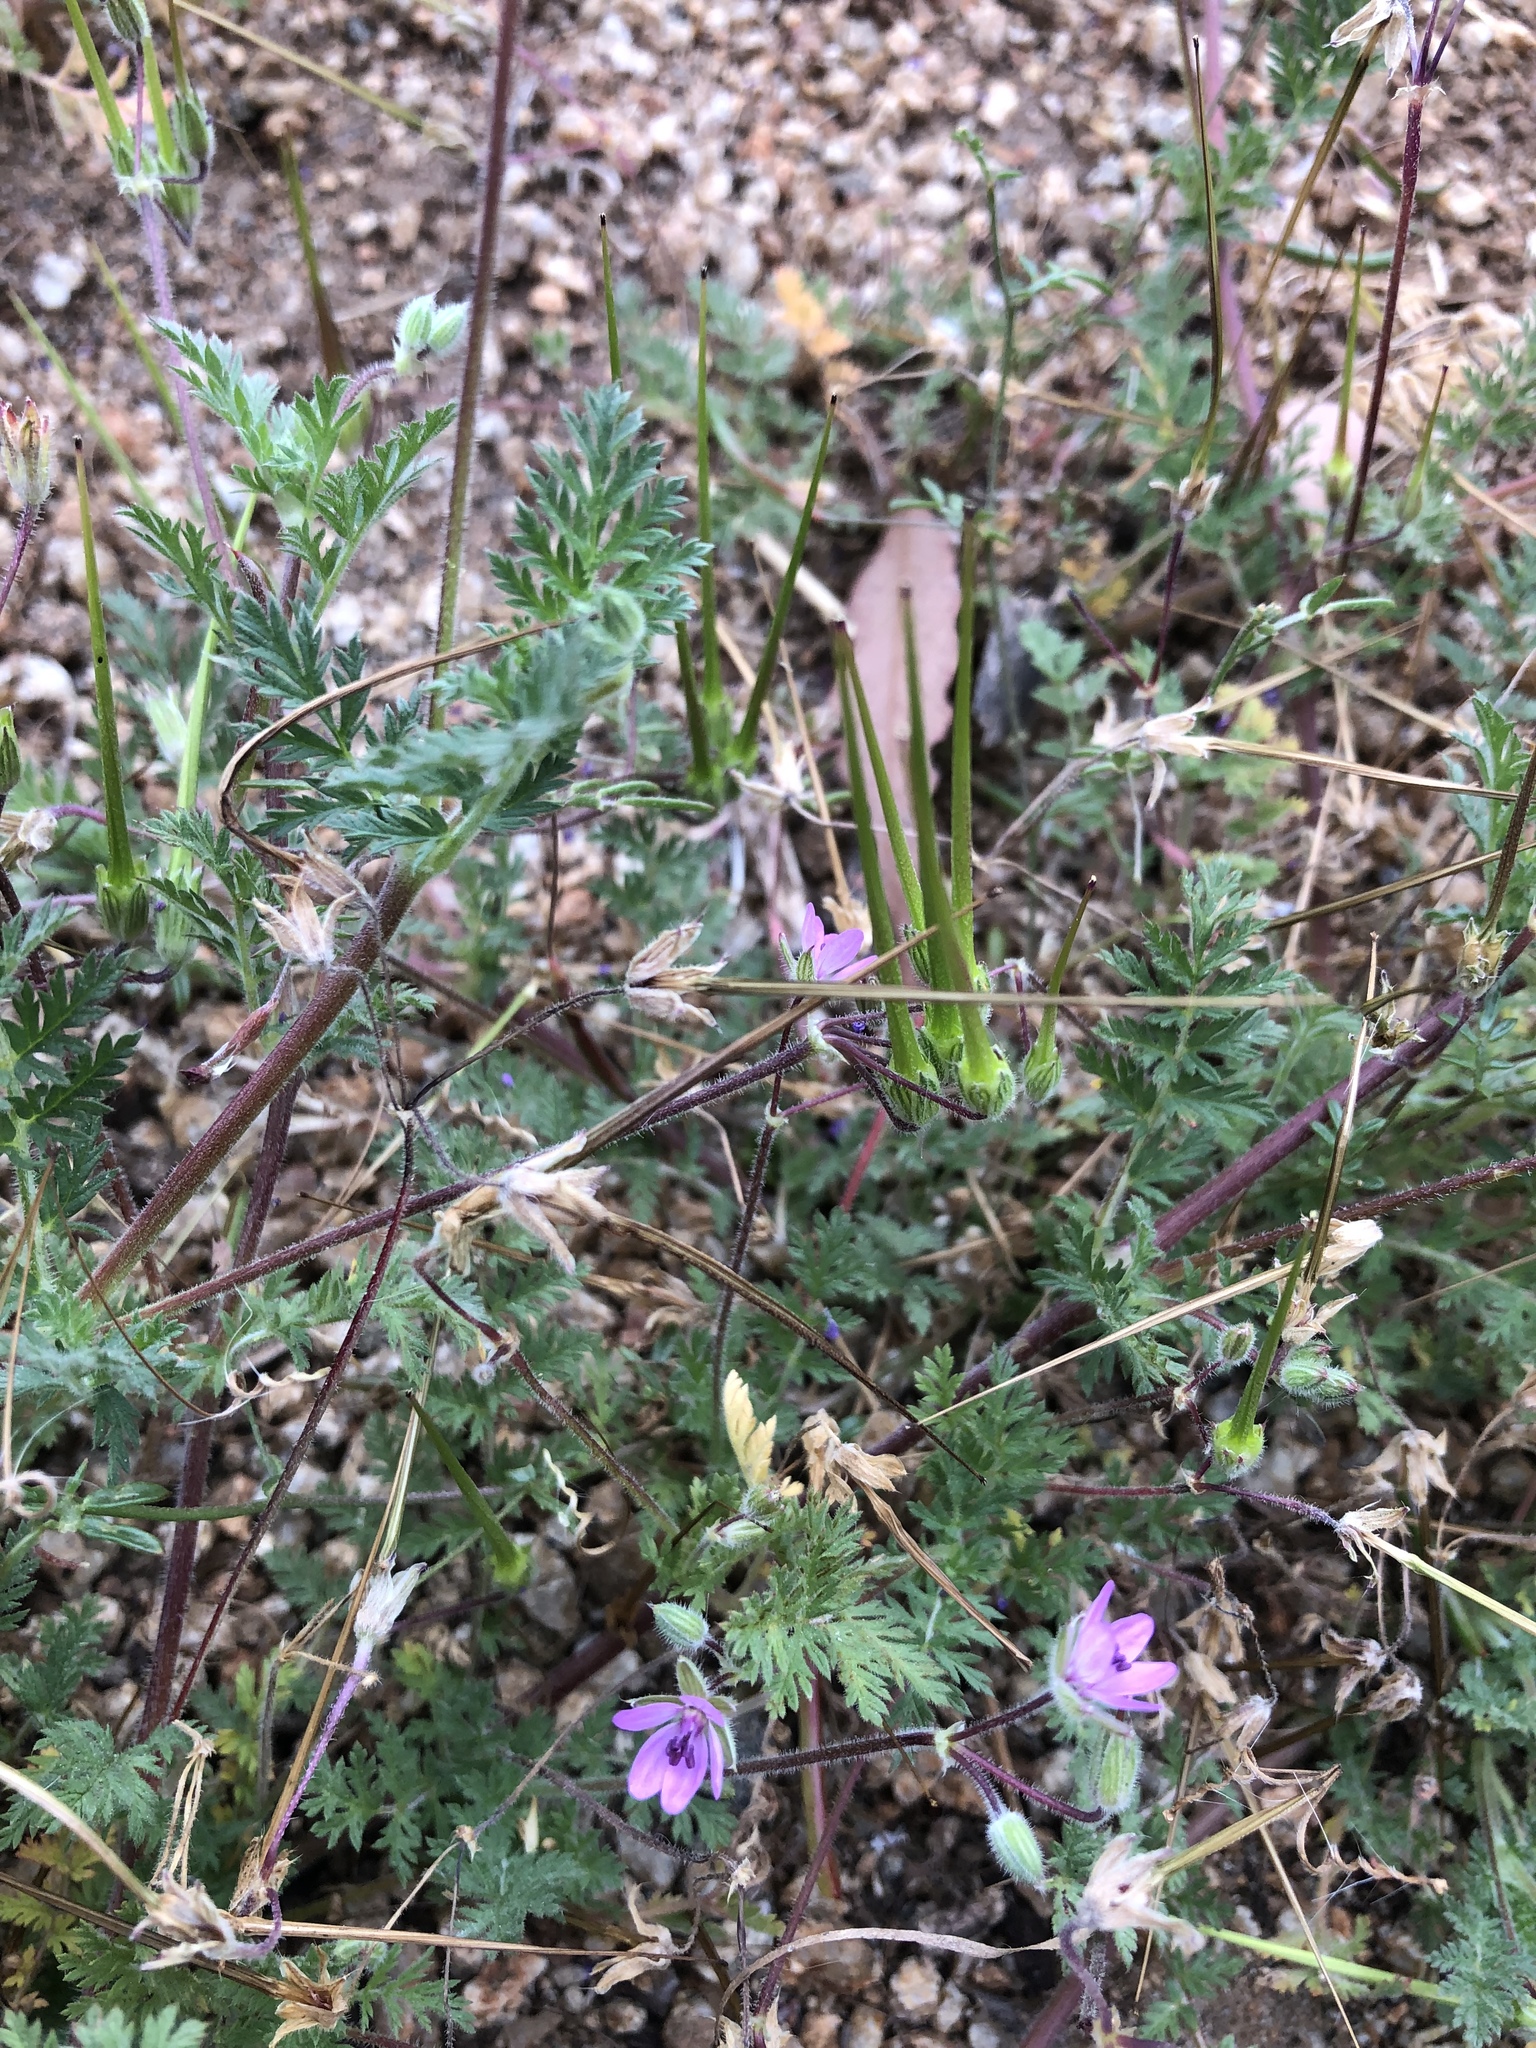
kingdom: Plantae
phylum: Tracheophyta
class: Magnoliopsida
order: Geraniales
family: Geraniaceae
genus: Erodium
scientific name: Erodium cicutarium
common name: Common stork's-bill
